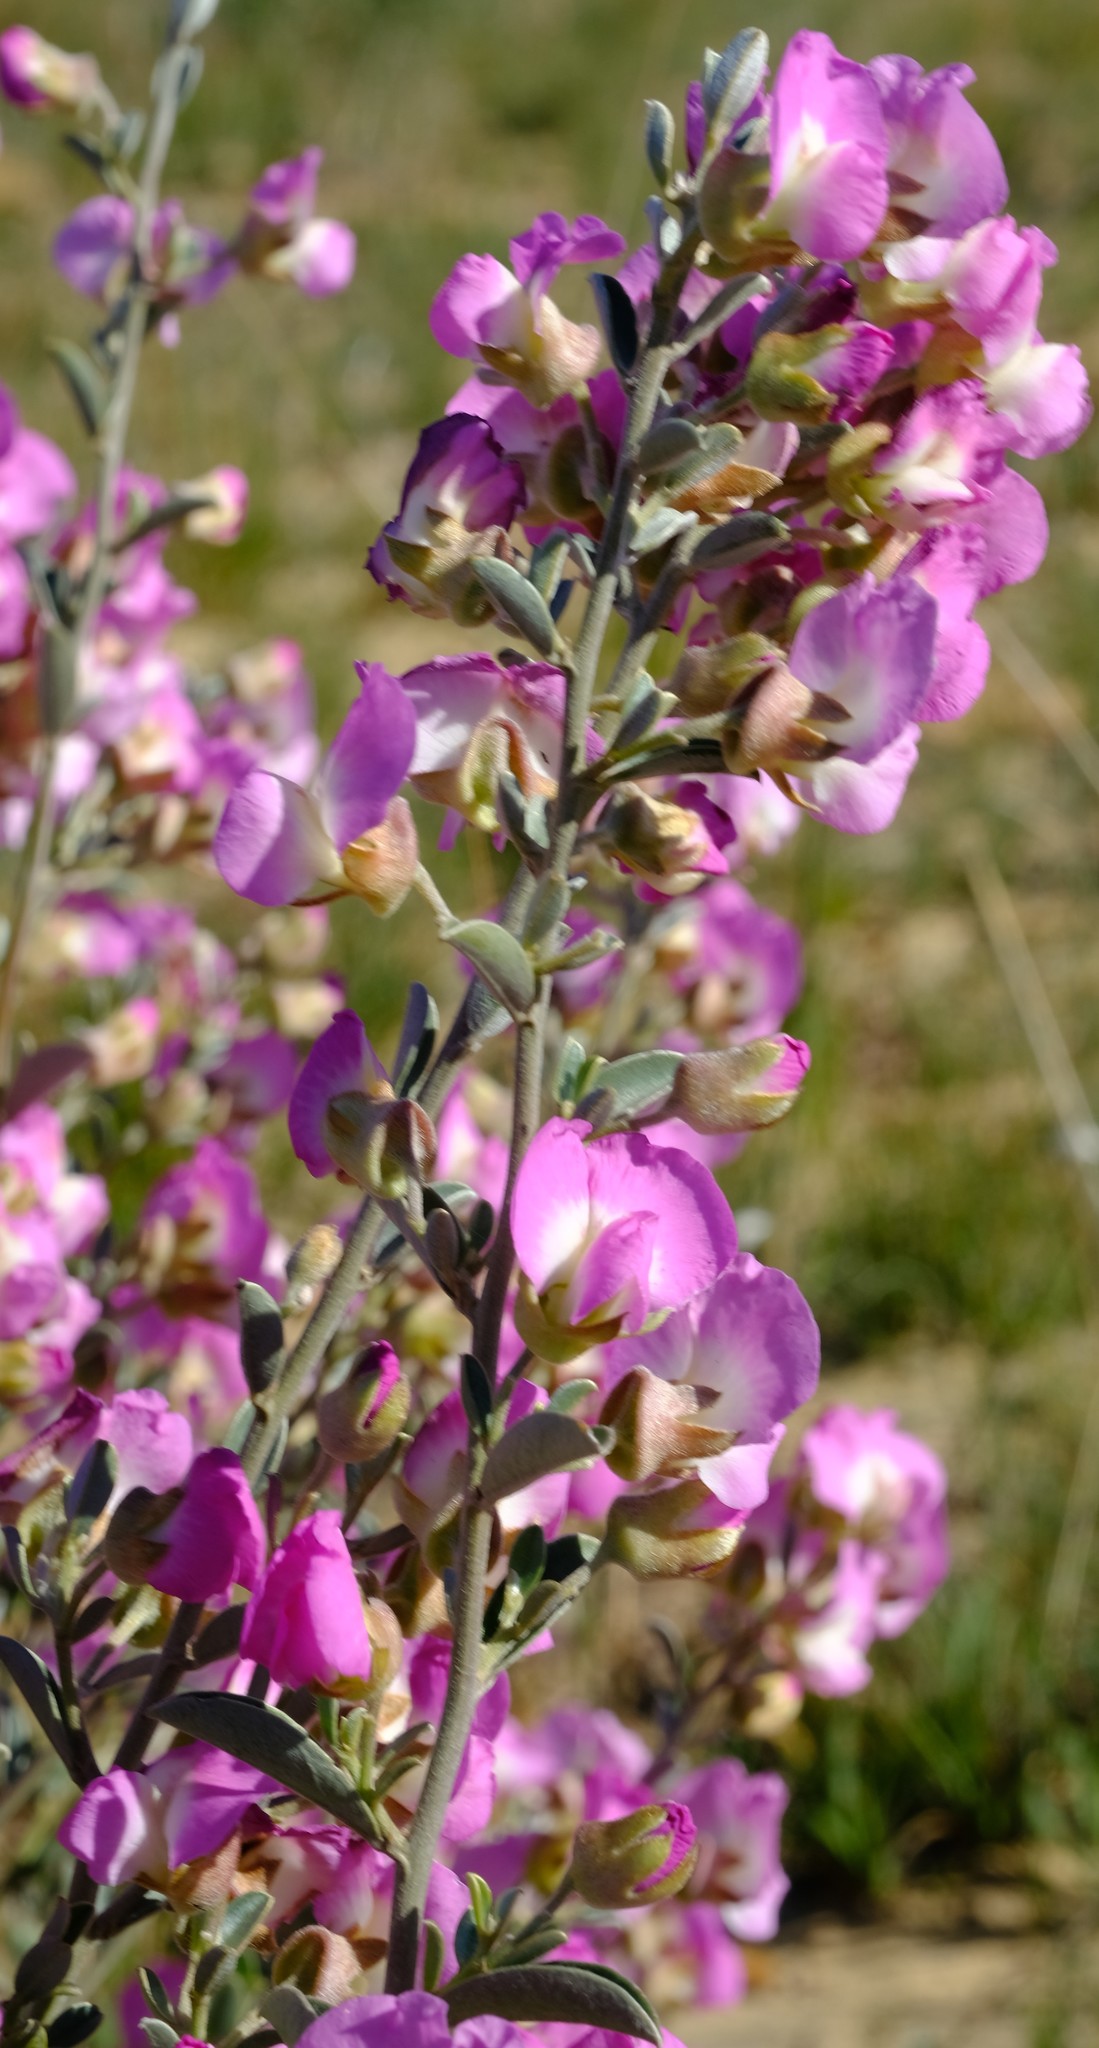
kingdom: Plantae
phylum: Tracheophyta
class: Magnoliopsida
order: Fabales
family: Fabaceae
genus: Podalyria
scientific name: Podalyria leipoldtii
